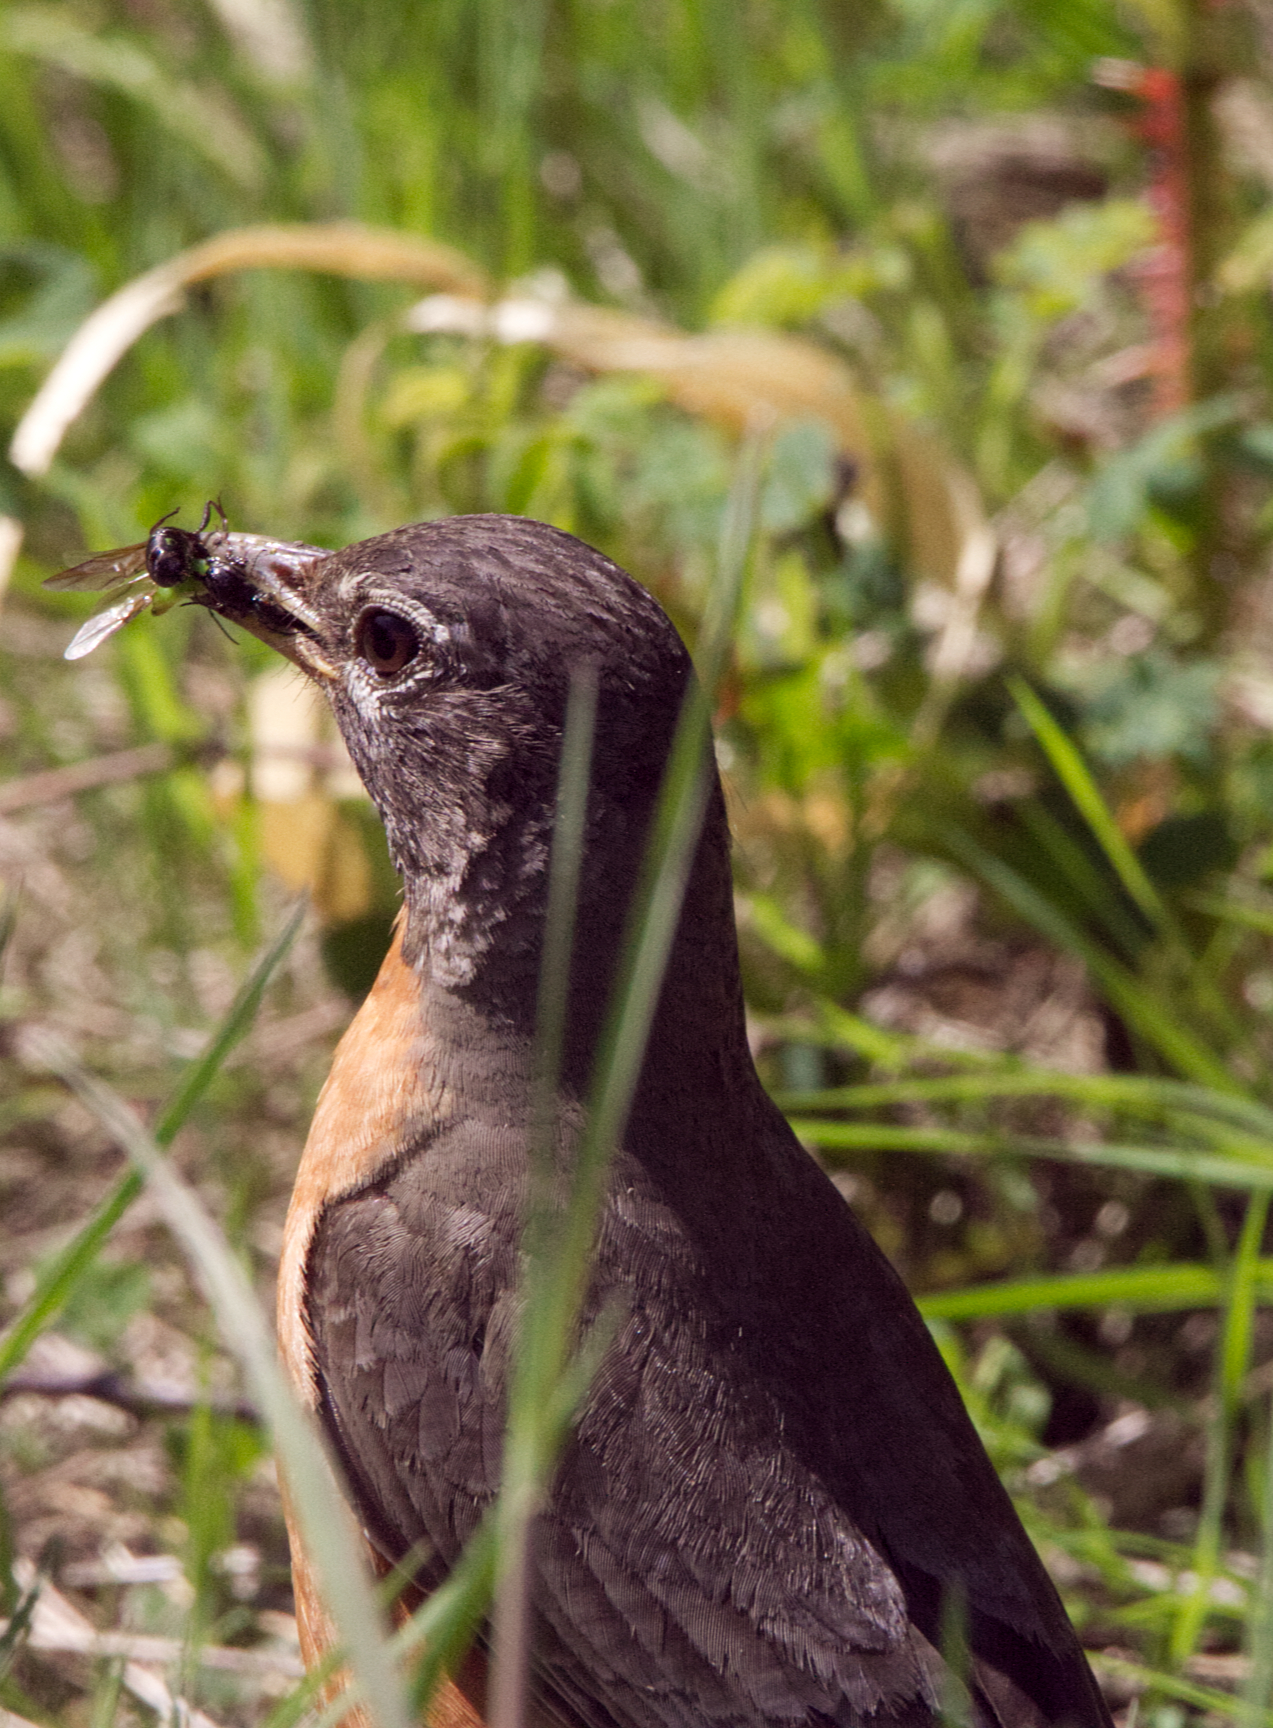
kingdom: Animalia
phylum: Chordata
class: Aves
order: Passeriformes
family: Turdidae
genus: Turdus
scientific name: Turdus migratorius
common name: American robin
